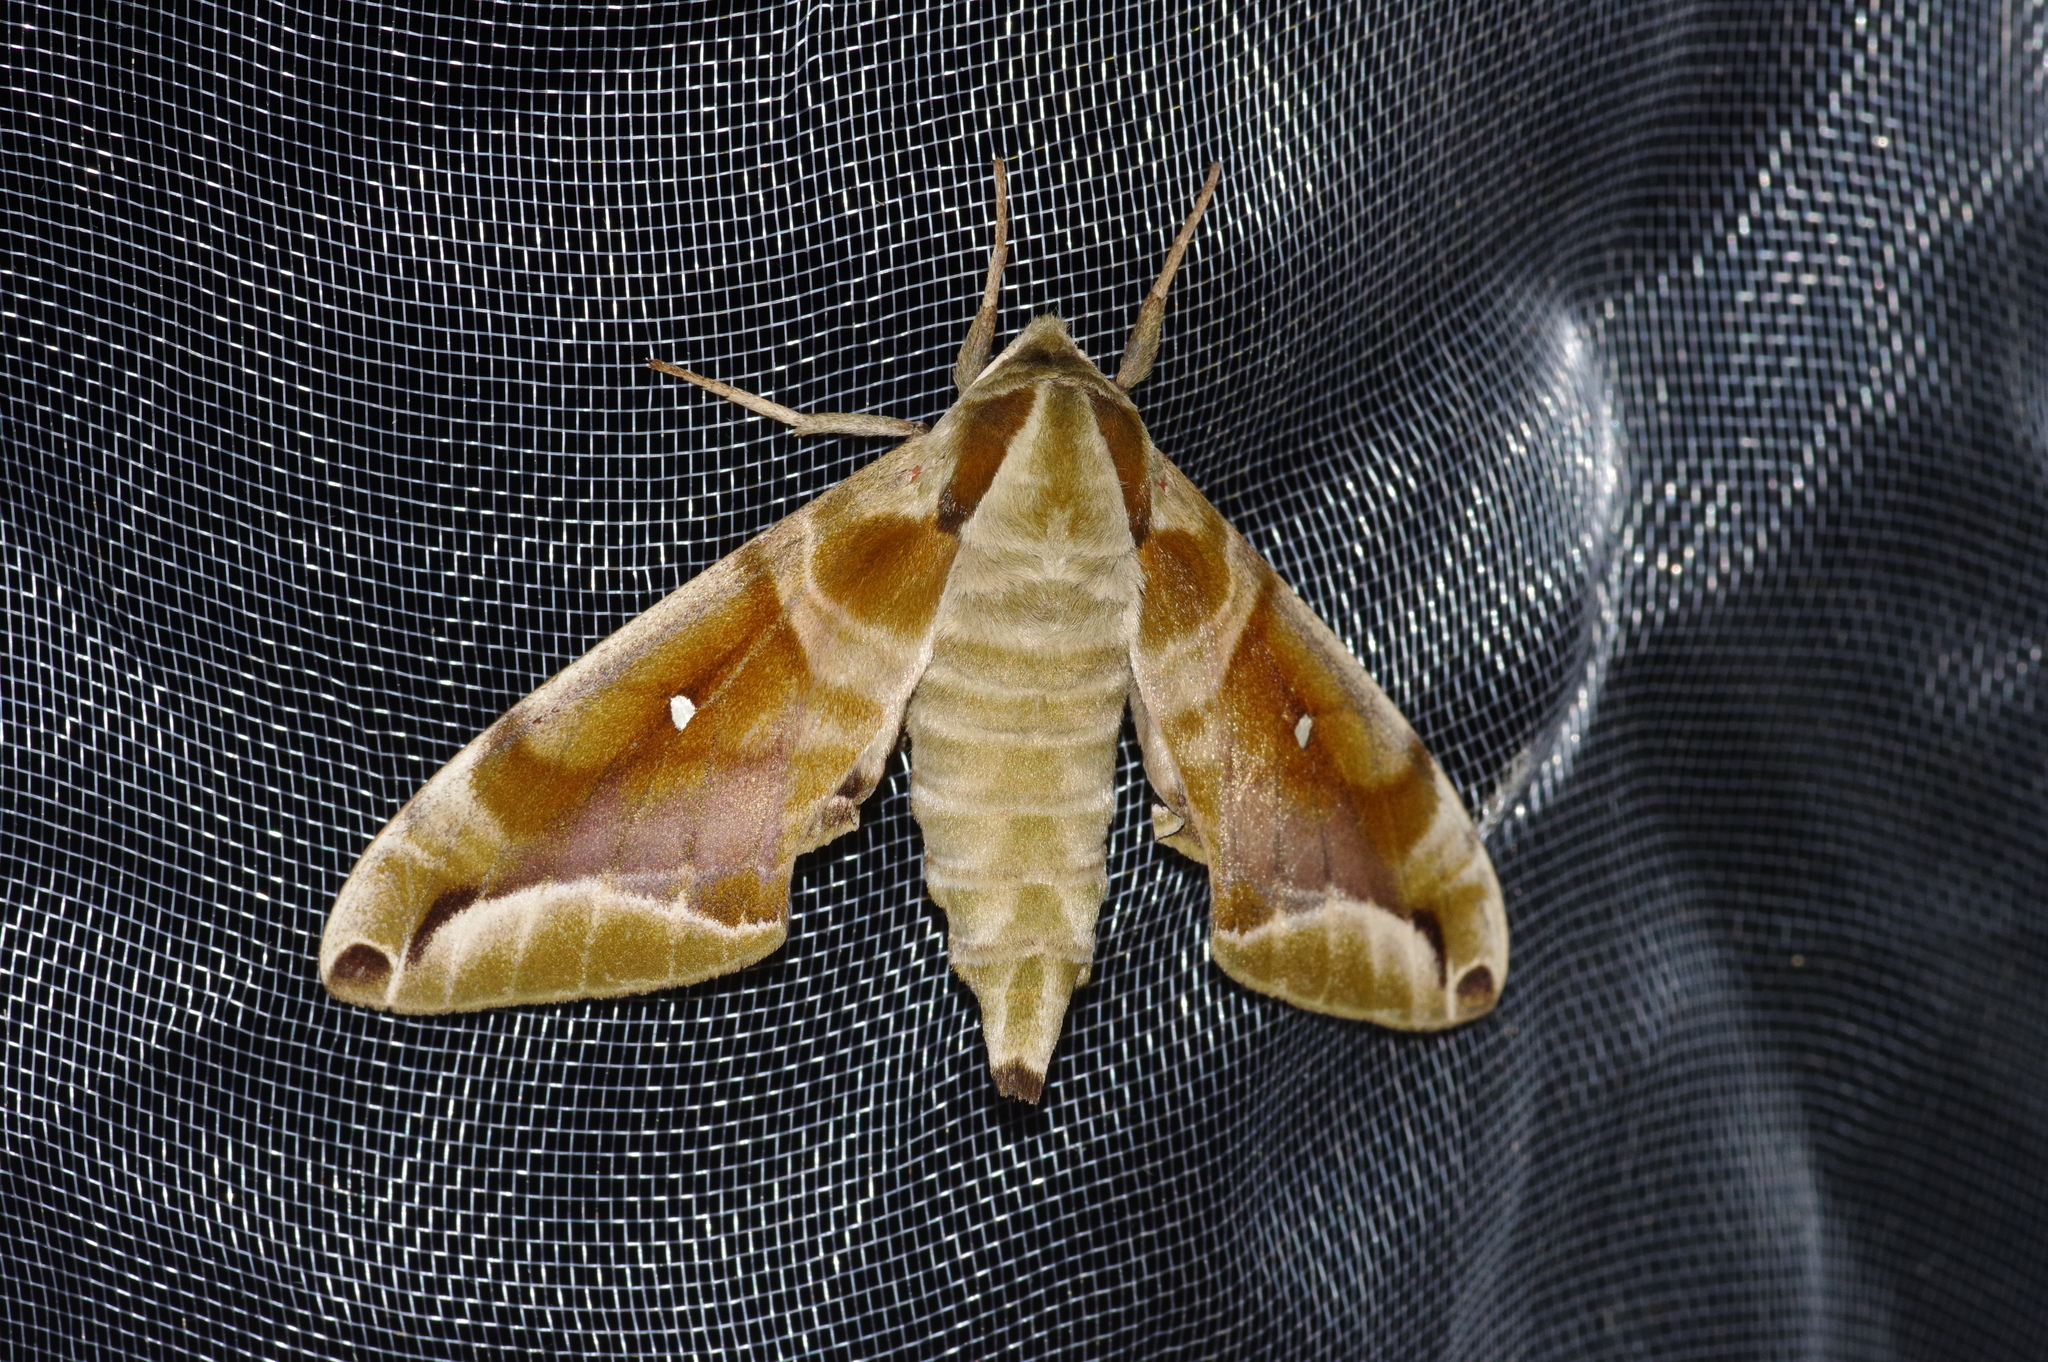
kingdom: Animalia
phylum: Arthropoda
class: Insecta
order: Lepidoptera
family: Sphingidae
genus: Parum
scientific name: Parum colligata
